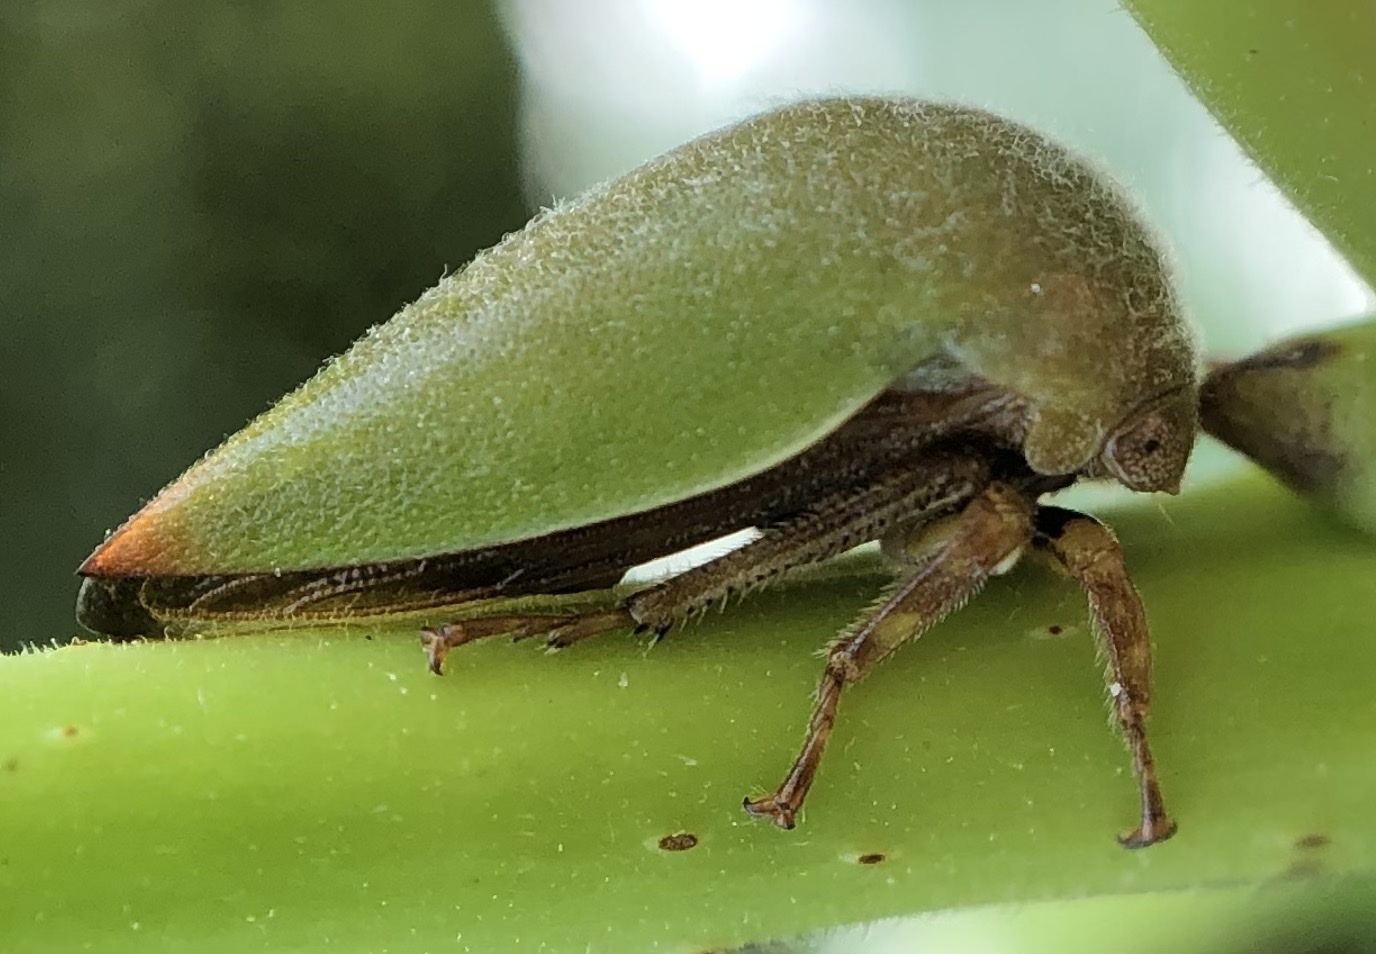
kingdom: Animalia
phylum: Arthropoda
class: Insecta
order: Hemiptera
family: Membracidae
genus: Hebetica
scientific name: Hebetica
